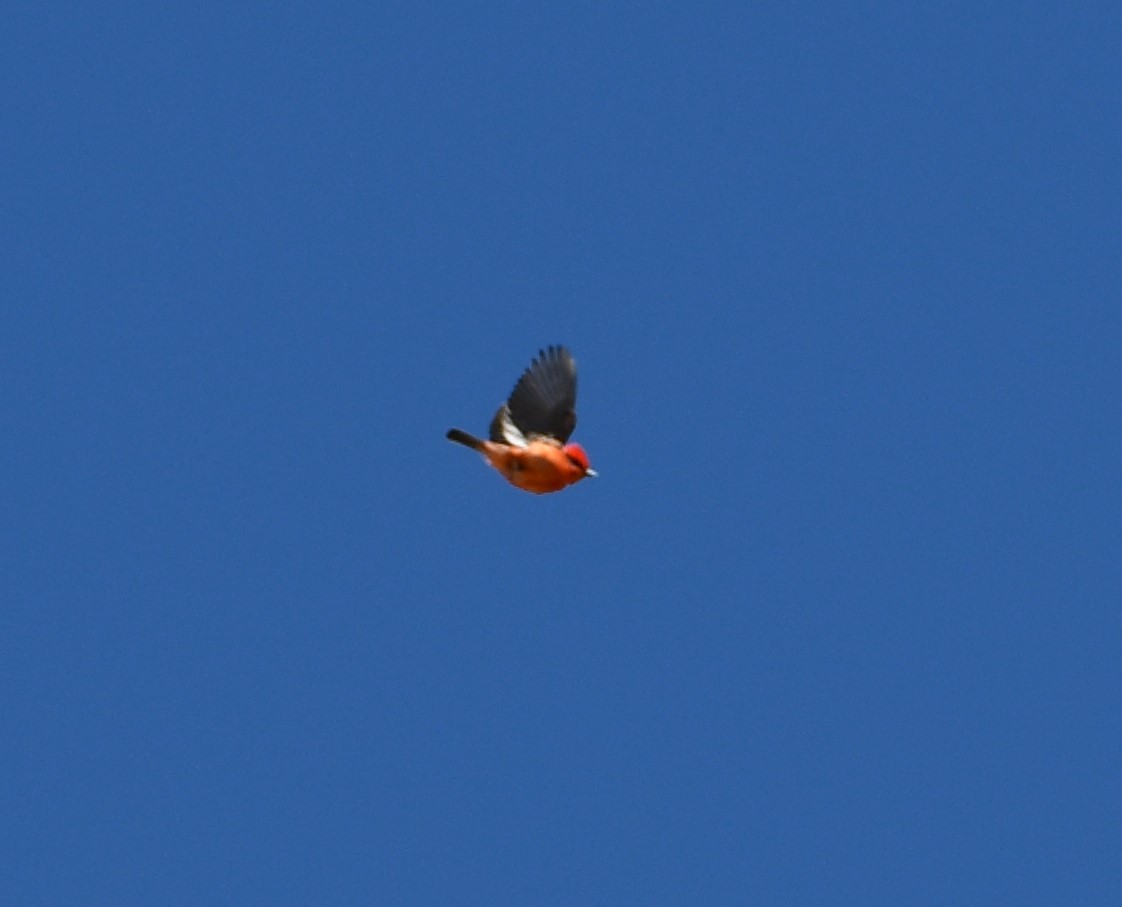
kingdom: Animalia
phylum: Chordata
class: Aves
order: Passeriformes
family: Tyrannidae
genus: Pyrocephalus
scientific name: Pyrocephalus rubinus
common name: Vermilion flycatcher
